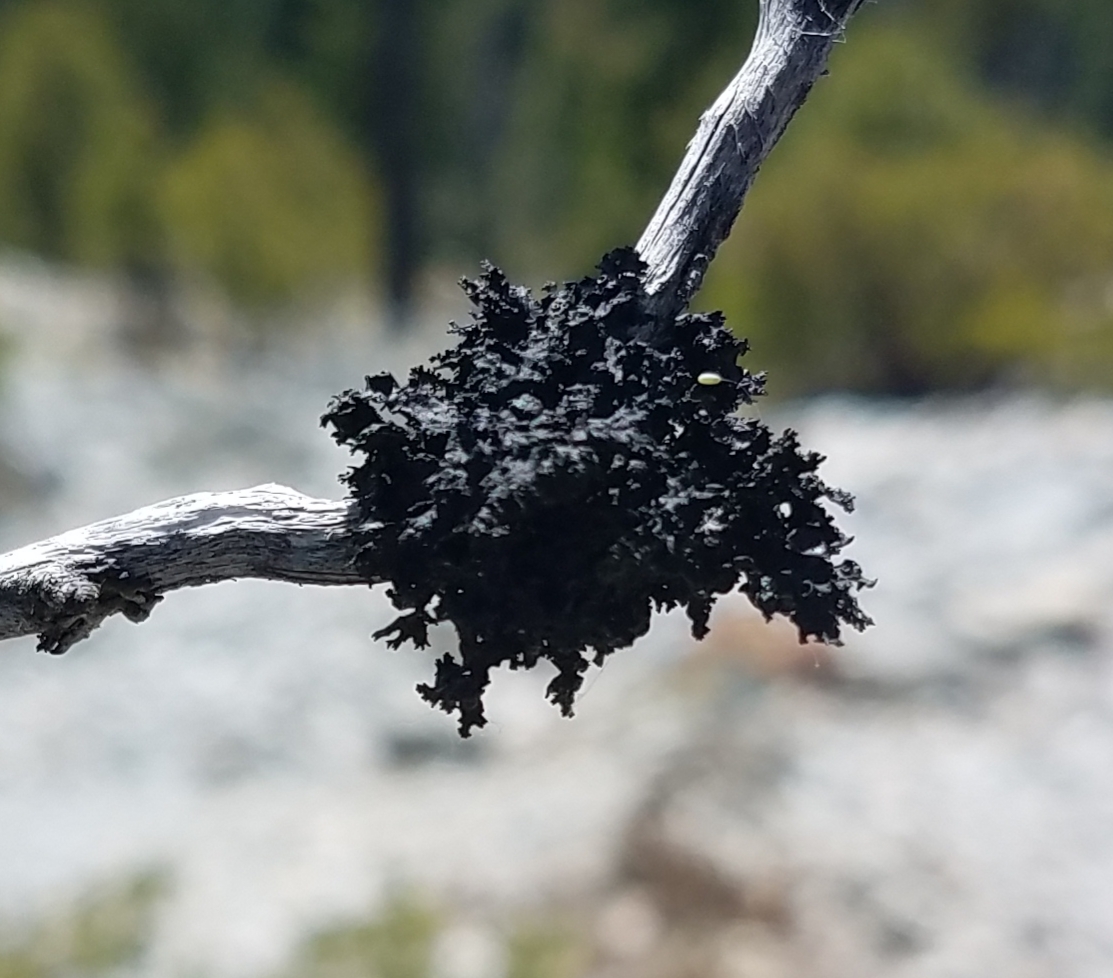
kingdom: Fungi
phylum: Ascomycota
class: Lecanoromycetes
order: Lecanorales
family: Parmeliaceae
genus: Nephromopsis
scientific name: Nephromopsis merrillii
